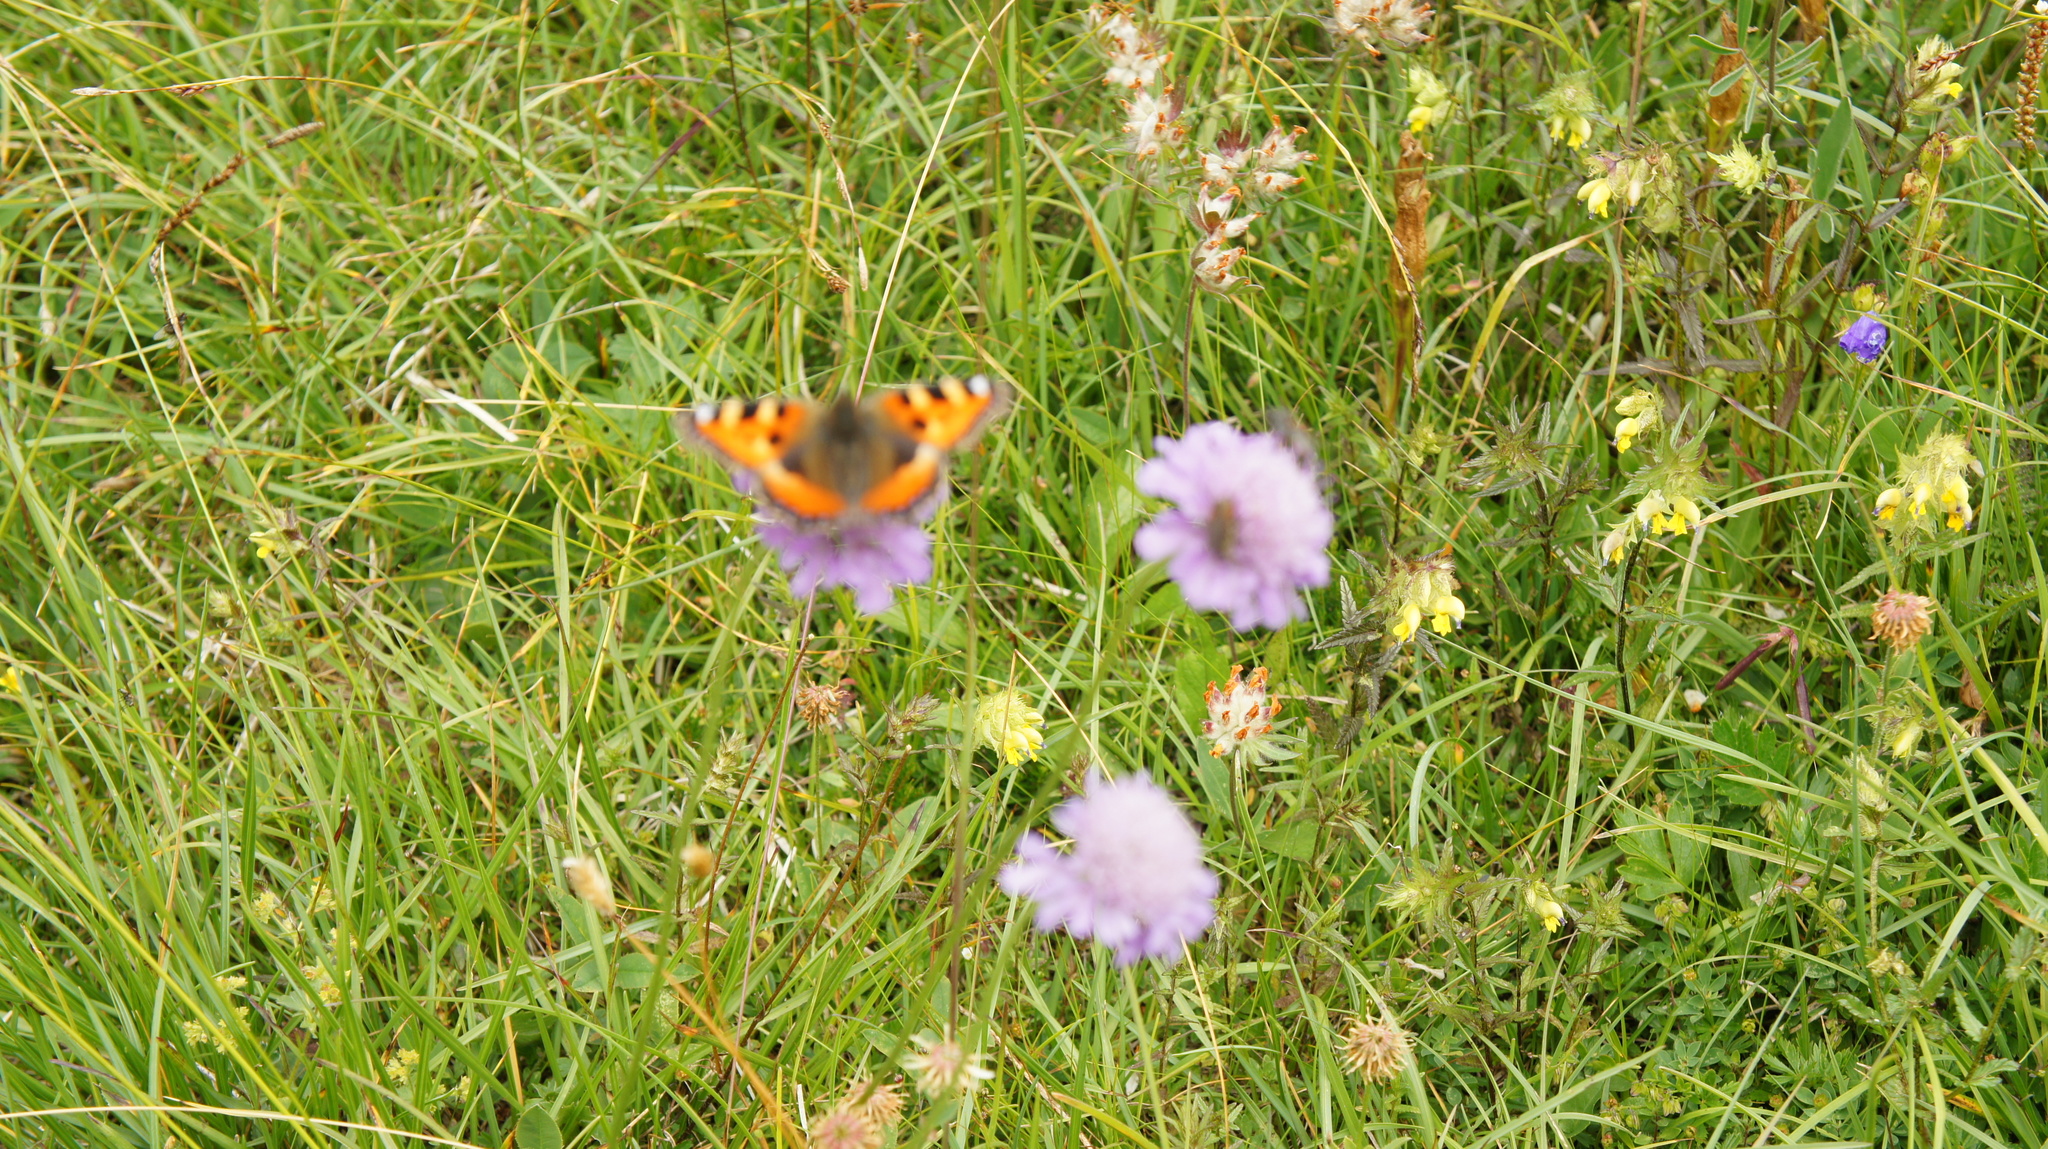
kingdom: Animalia
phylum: Arthropoda
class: Insecta
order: Lepidoptera
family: Nymphalidae
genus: Aglais
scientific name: Aglais urticae
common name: Small tortoiseshell
